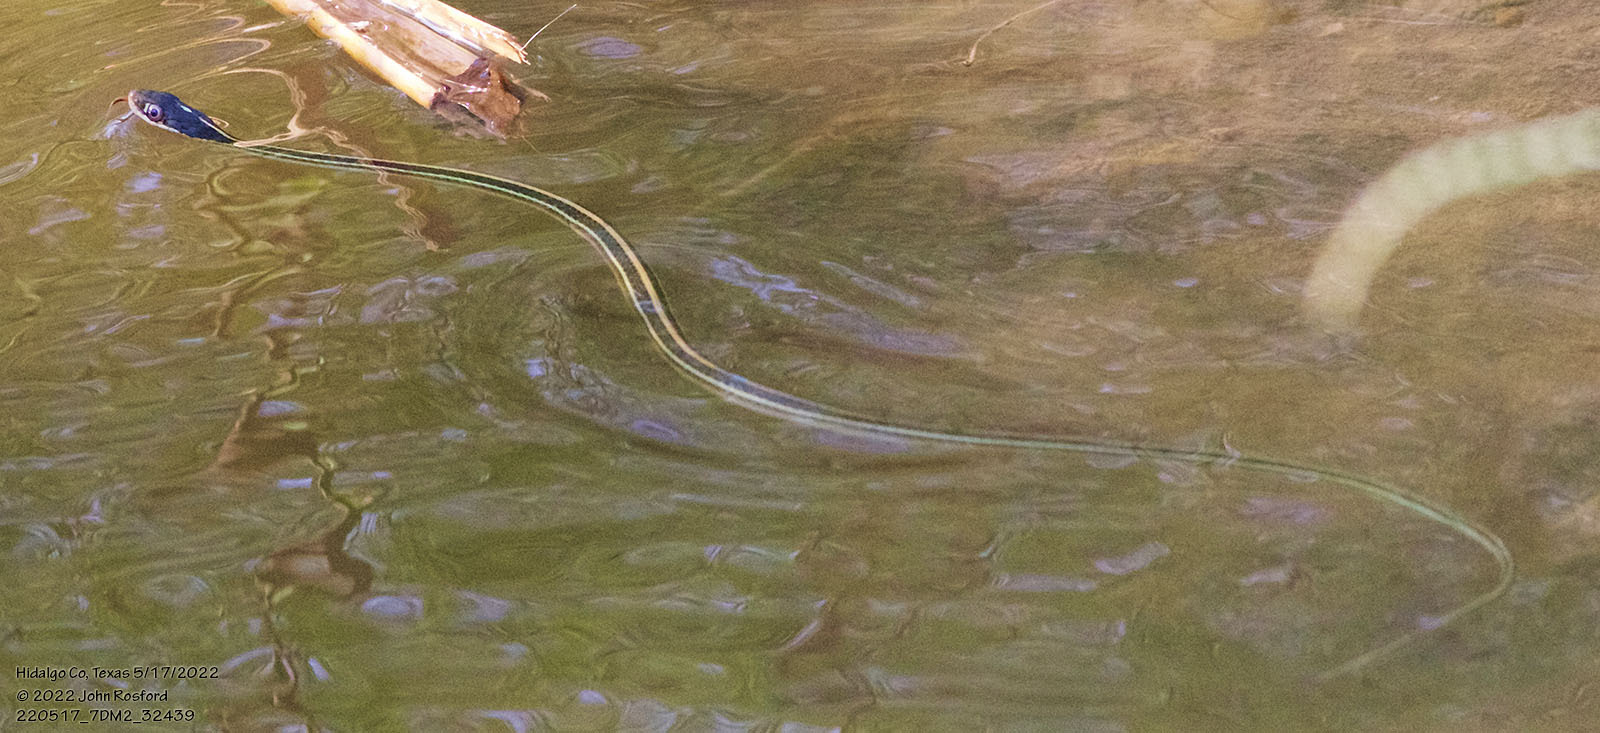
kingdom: Animalia
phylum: Chordata
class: Squamata
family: Colubridae
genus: Thamnophis
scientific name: Thamnophis proximus
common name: Western ribbon snake
